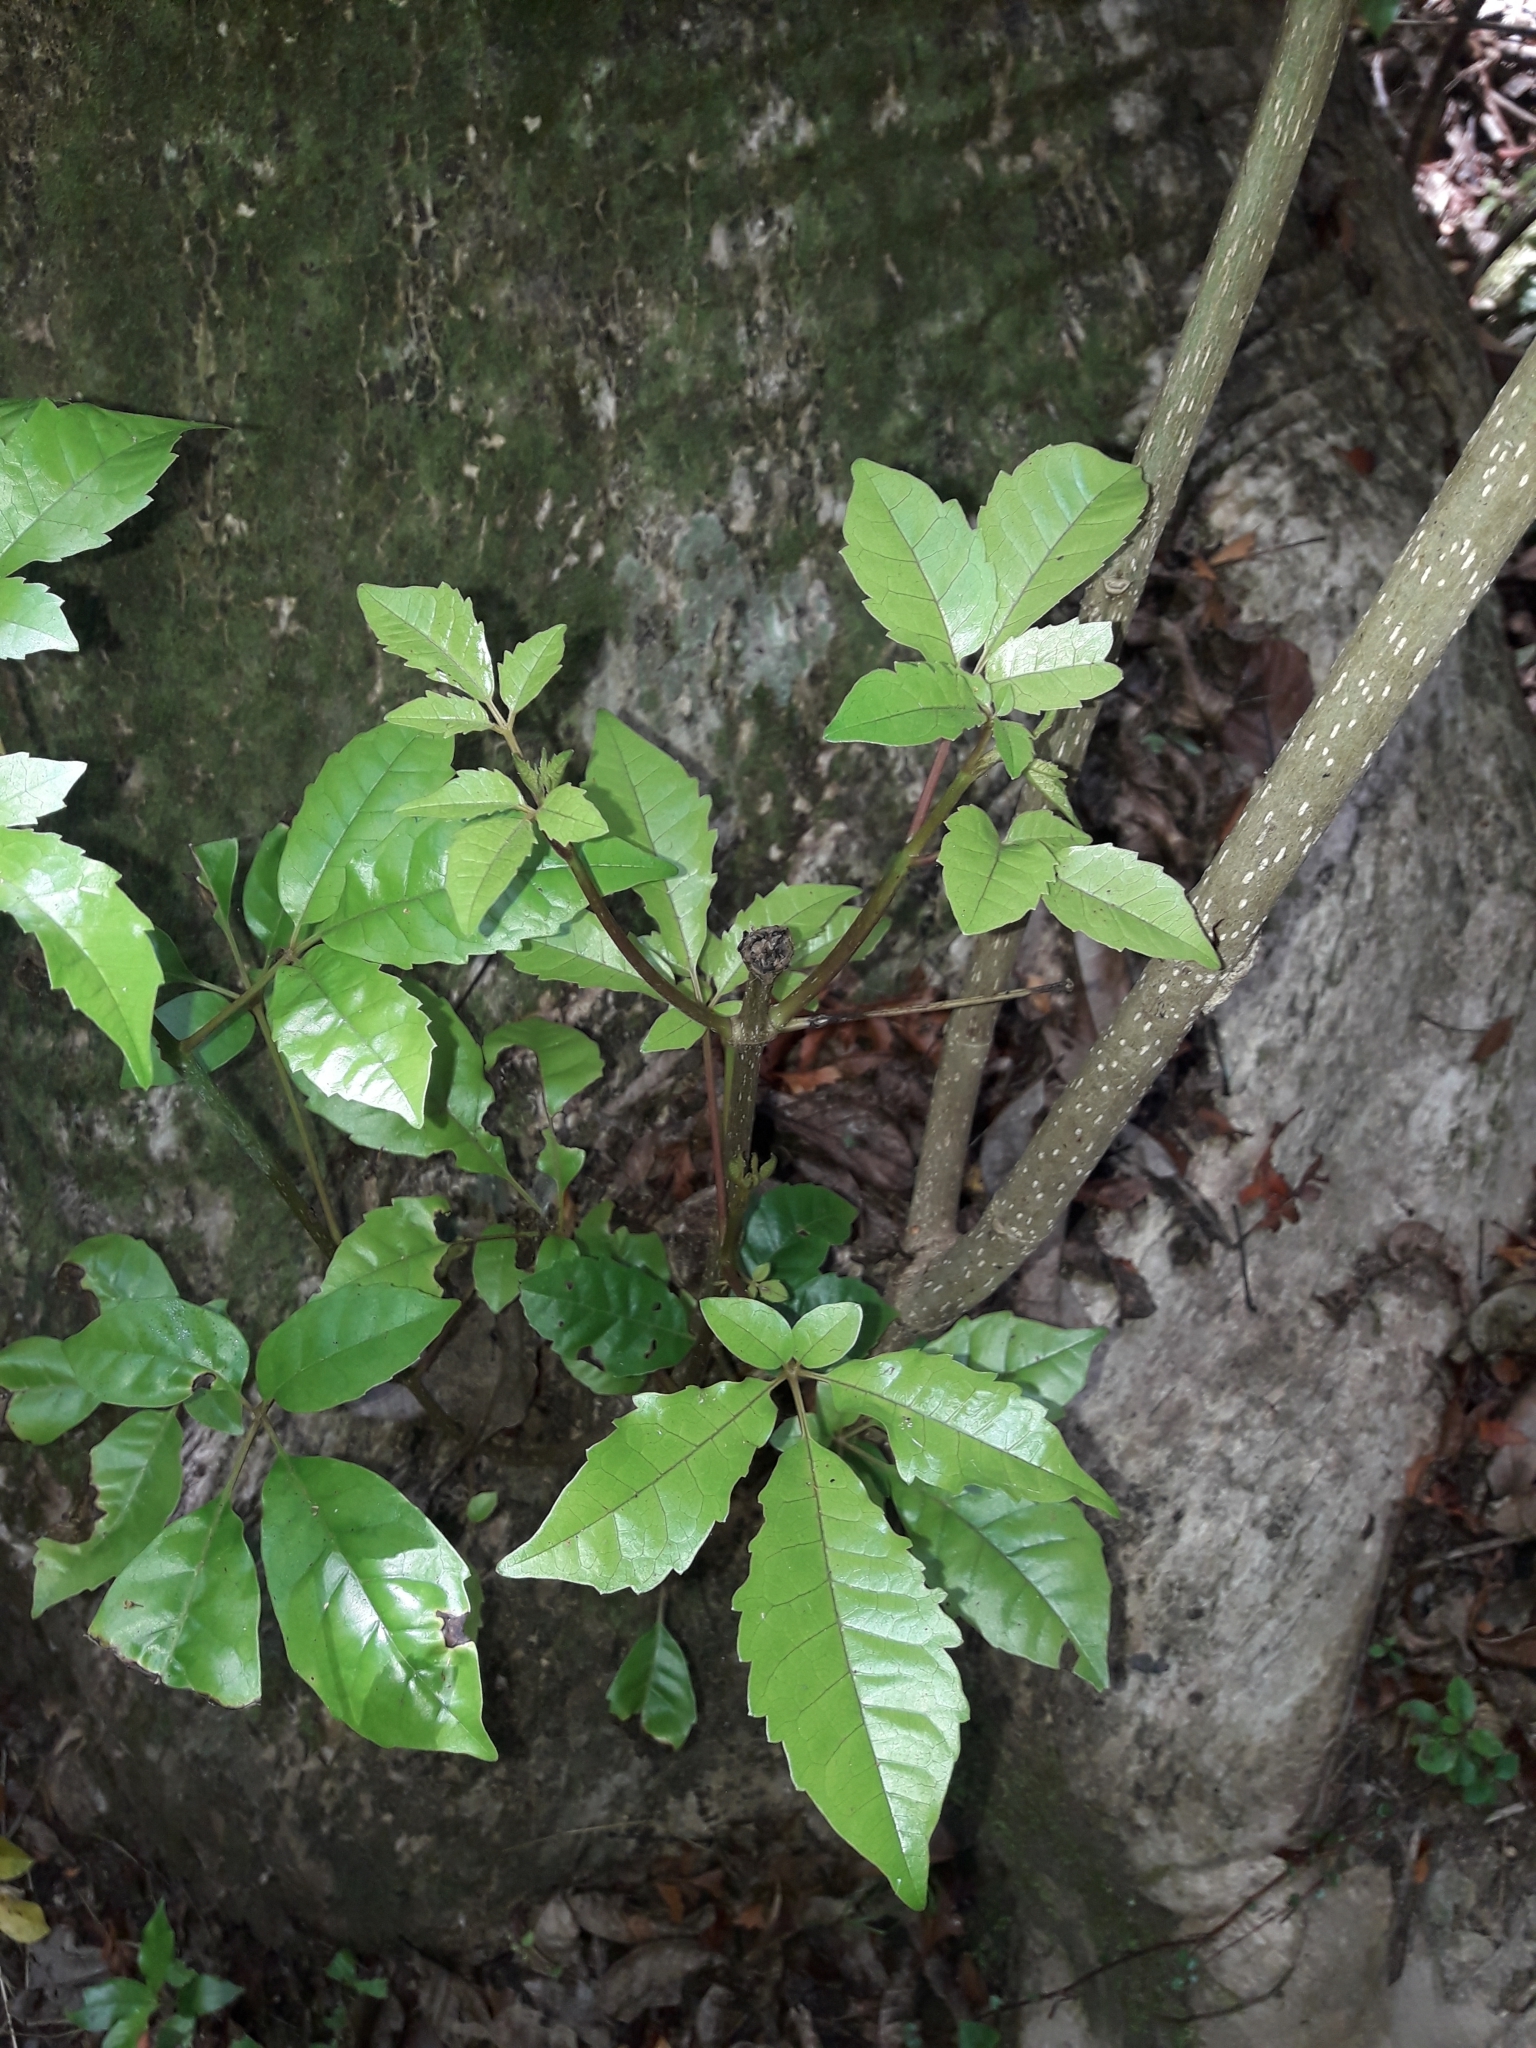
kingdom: Plantae
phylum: Tracheophyta
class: Magnoliopsida
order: Lamiales
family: Lamiaceae
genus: Vitex
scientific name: Vitex lucens
